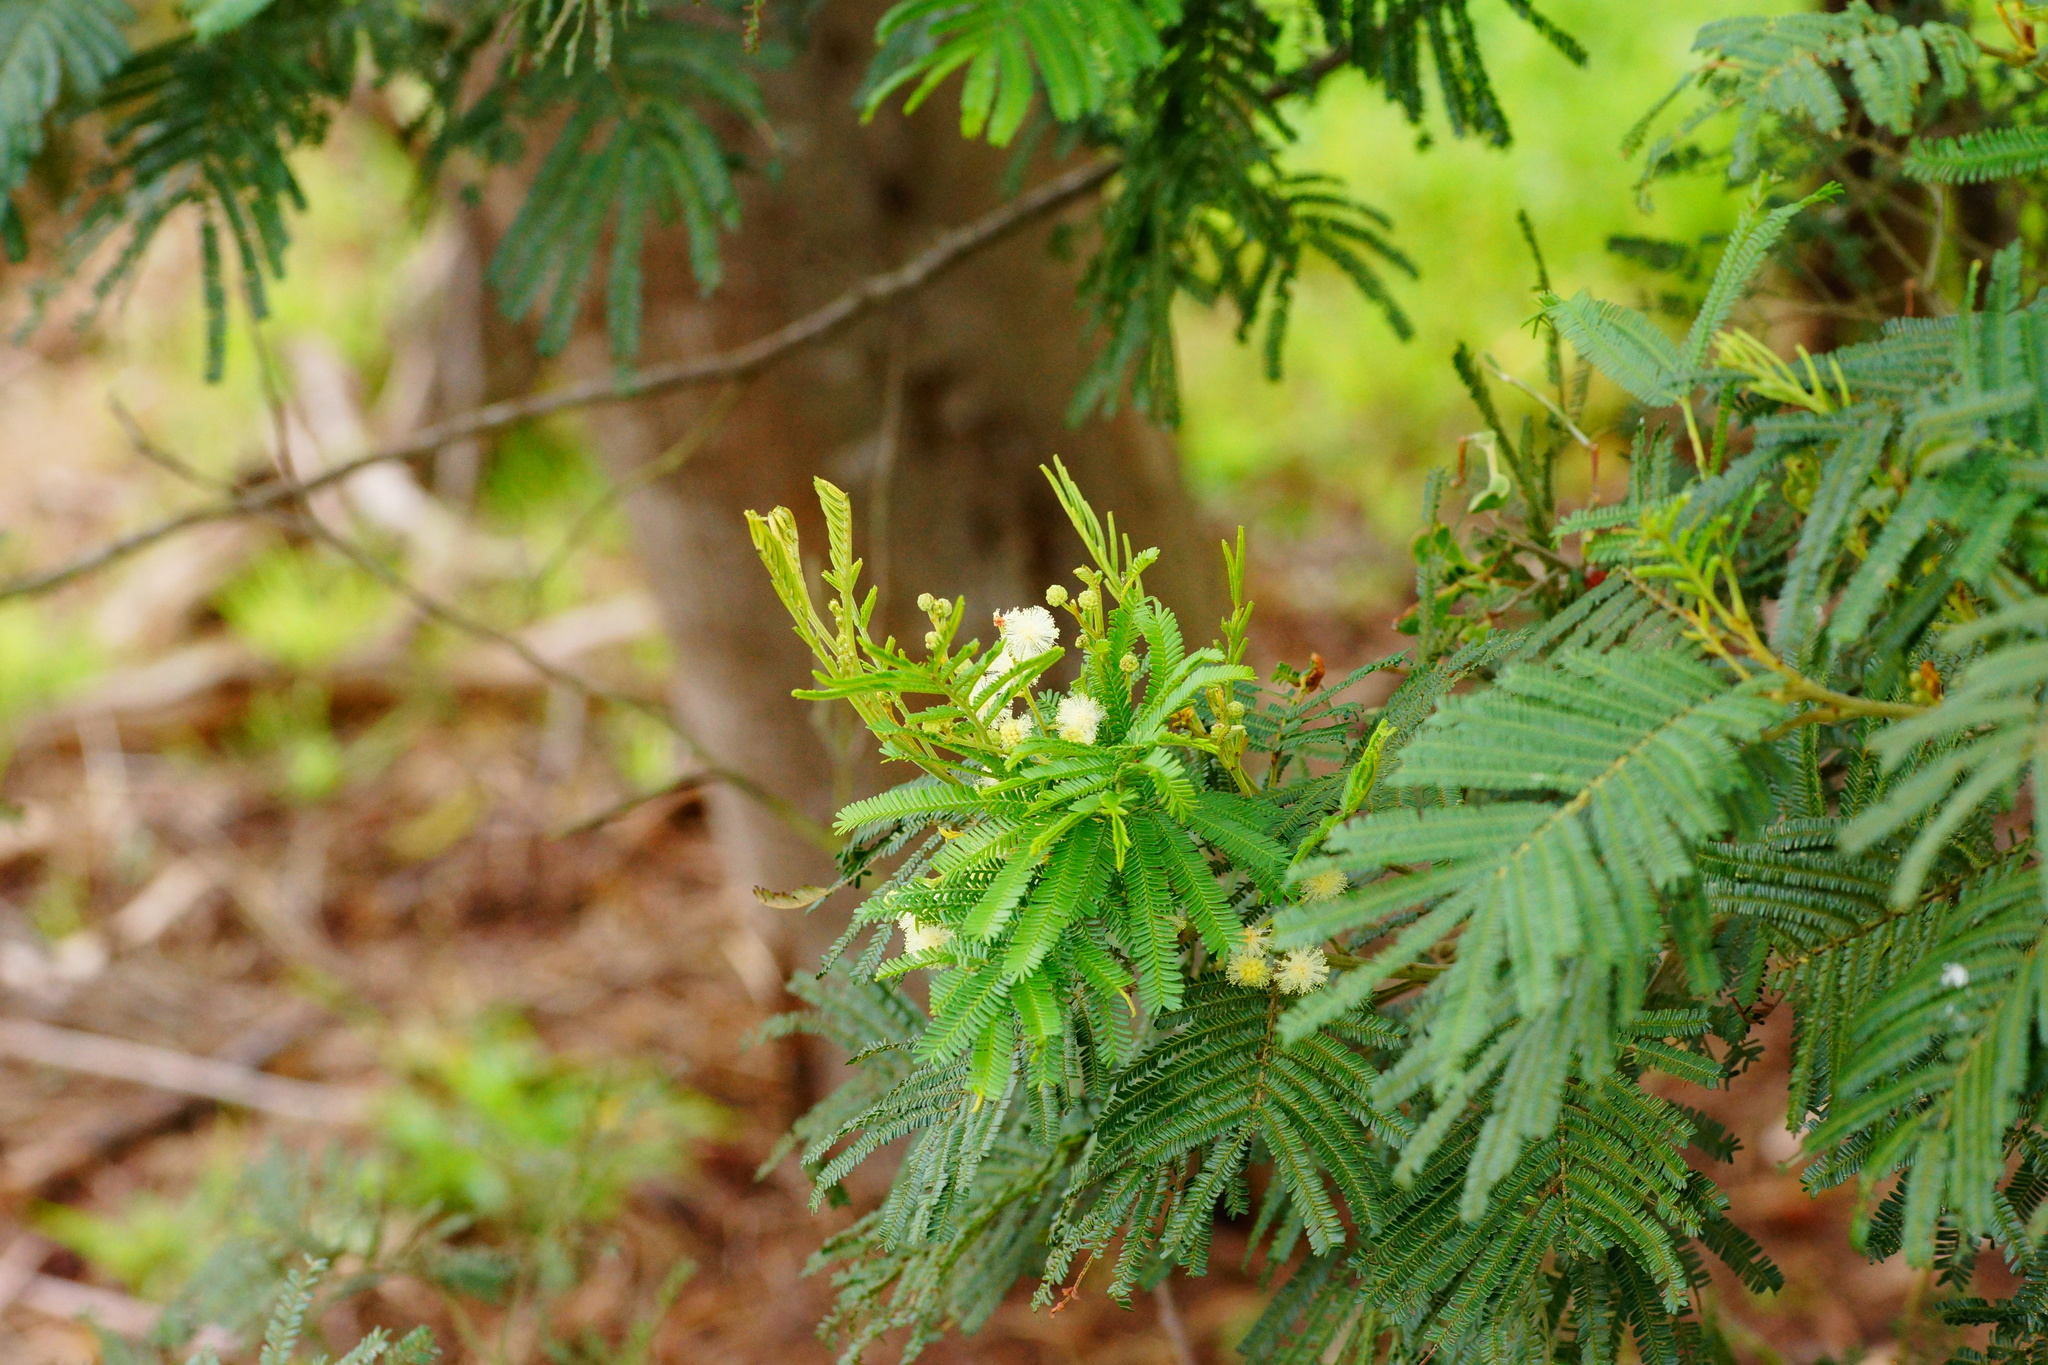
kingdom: Plantae
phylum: Tracheophyta
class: Magnoliopsida
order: Fabales
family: Fabaceae
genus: Acacia
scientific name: Acacia mearnsii
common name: Black wattle
